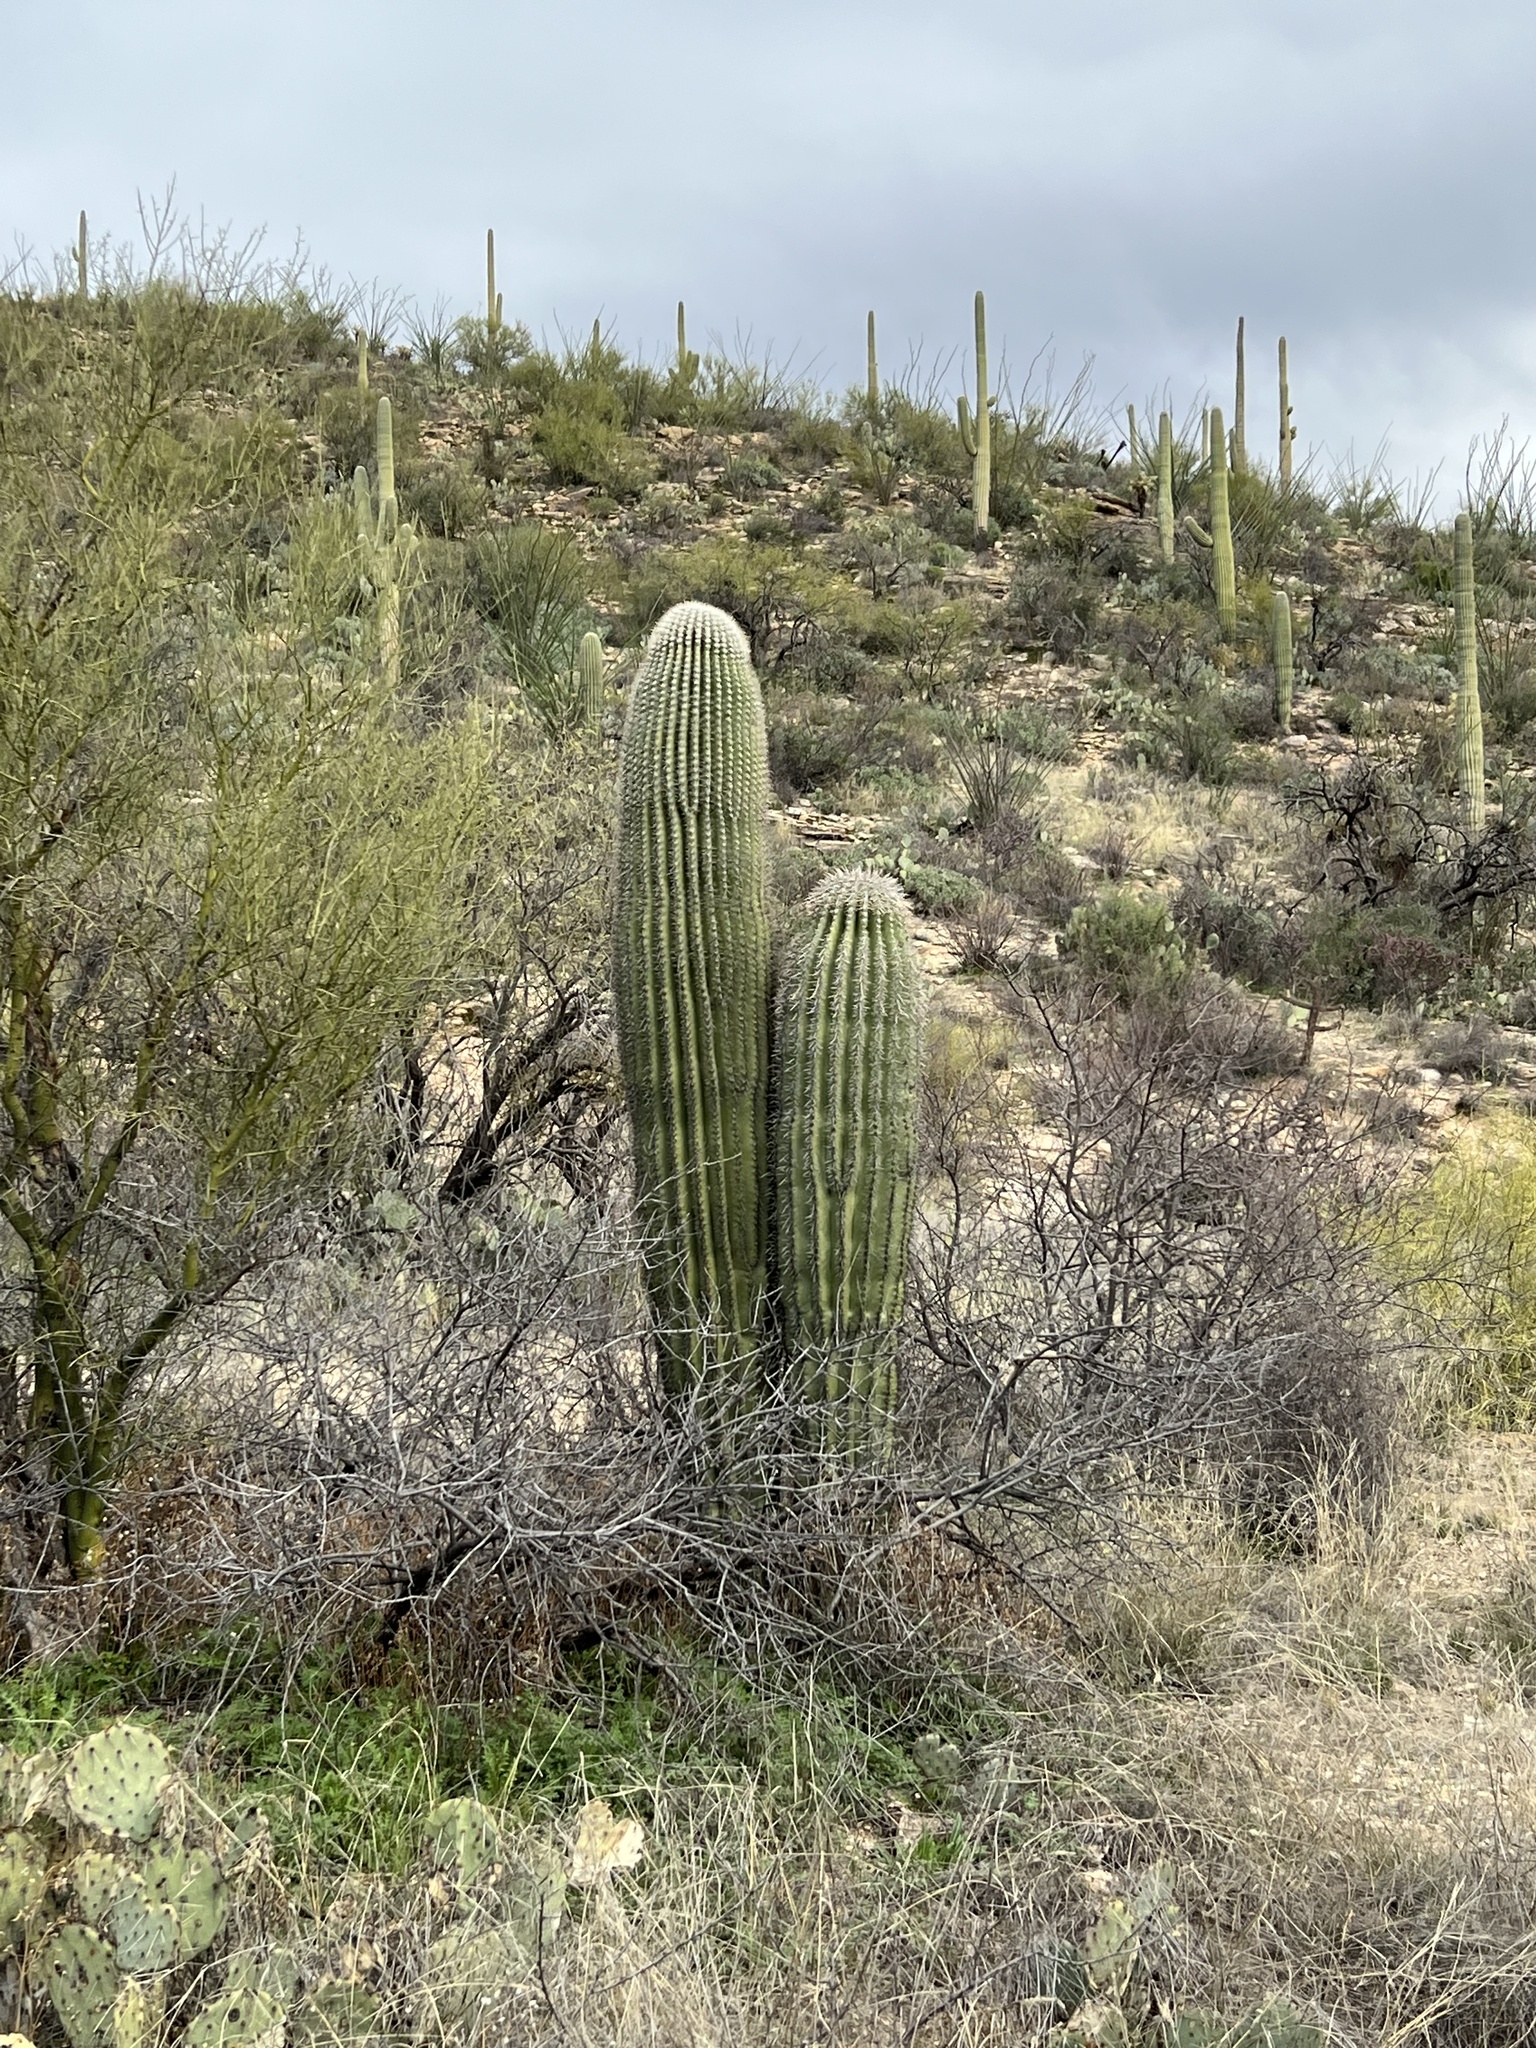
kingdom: Plantae
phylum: Tracheophyta
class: Magnoliopsida
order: Caryophyllales
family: Cactaceae
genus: Carnegiea
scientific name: Carnegiea gigantea
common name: Saguaro
